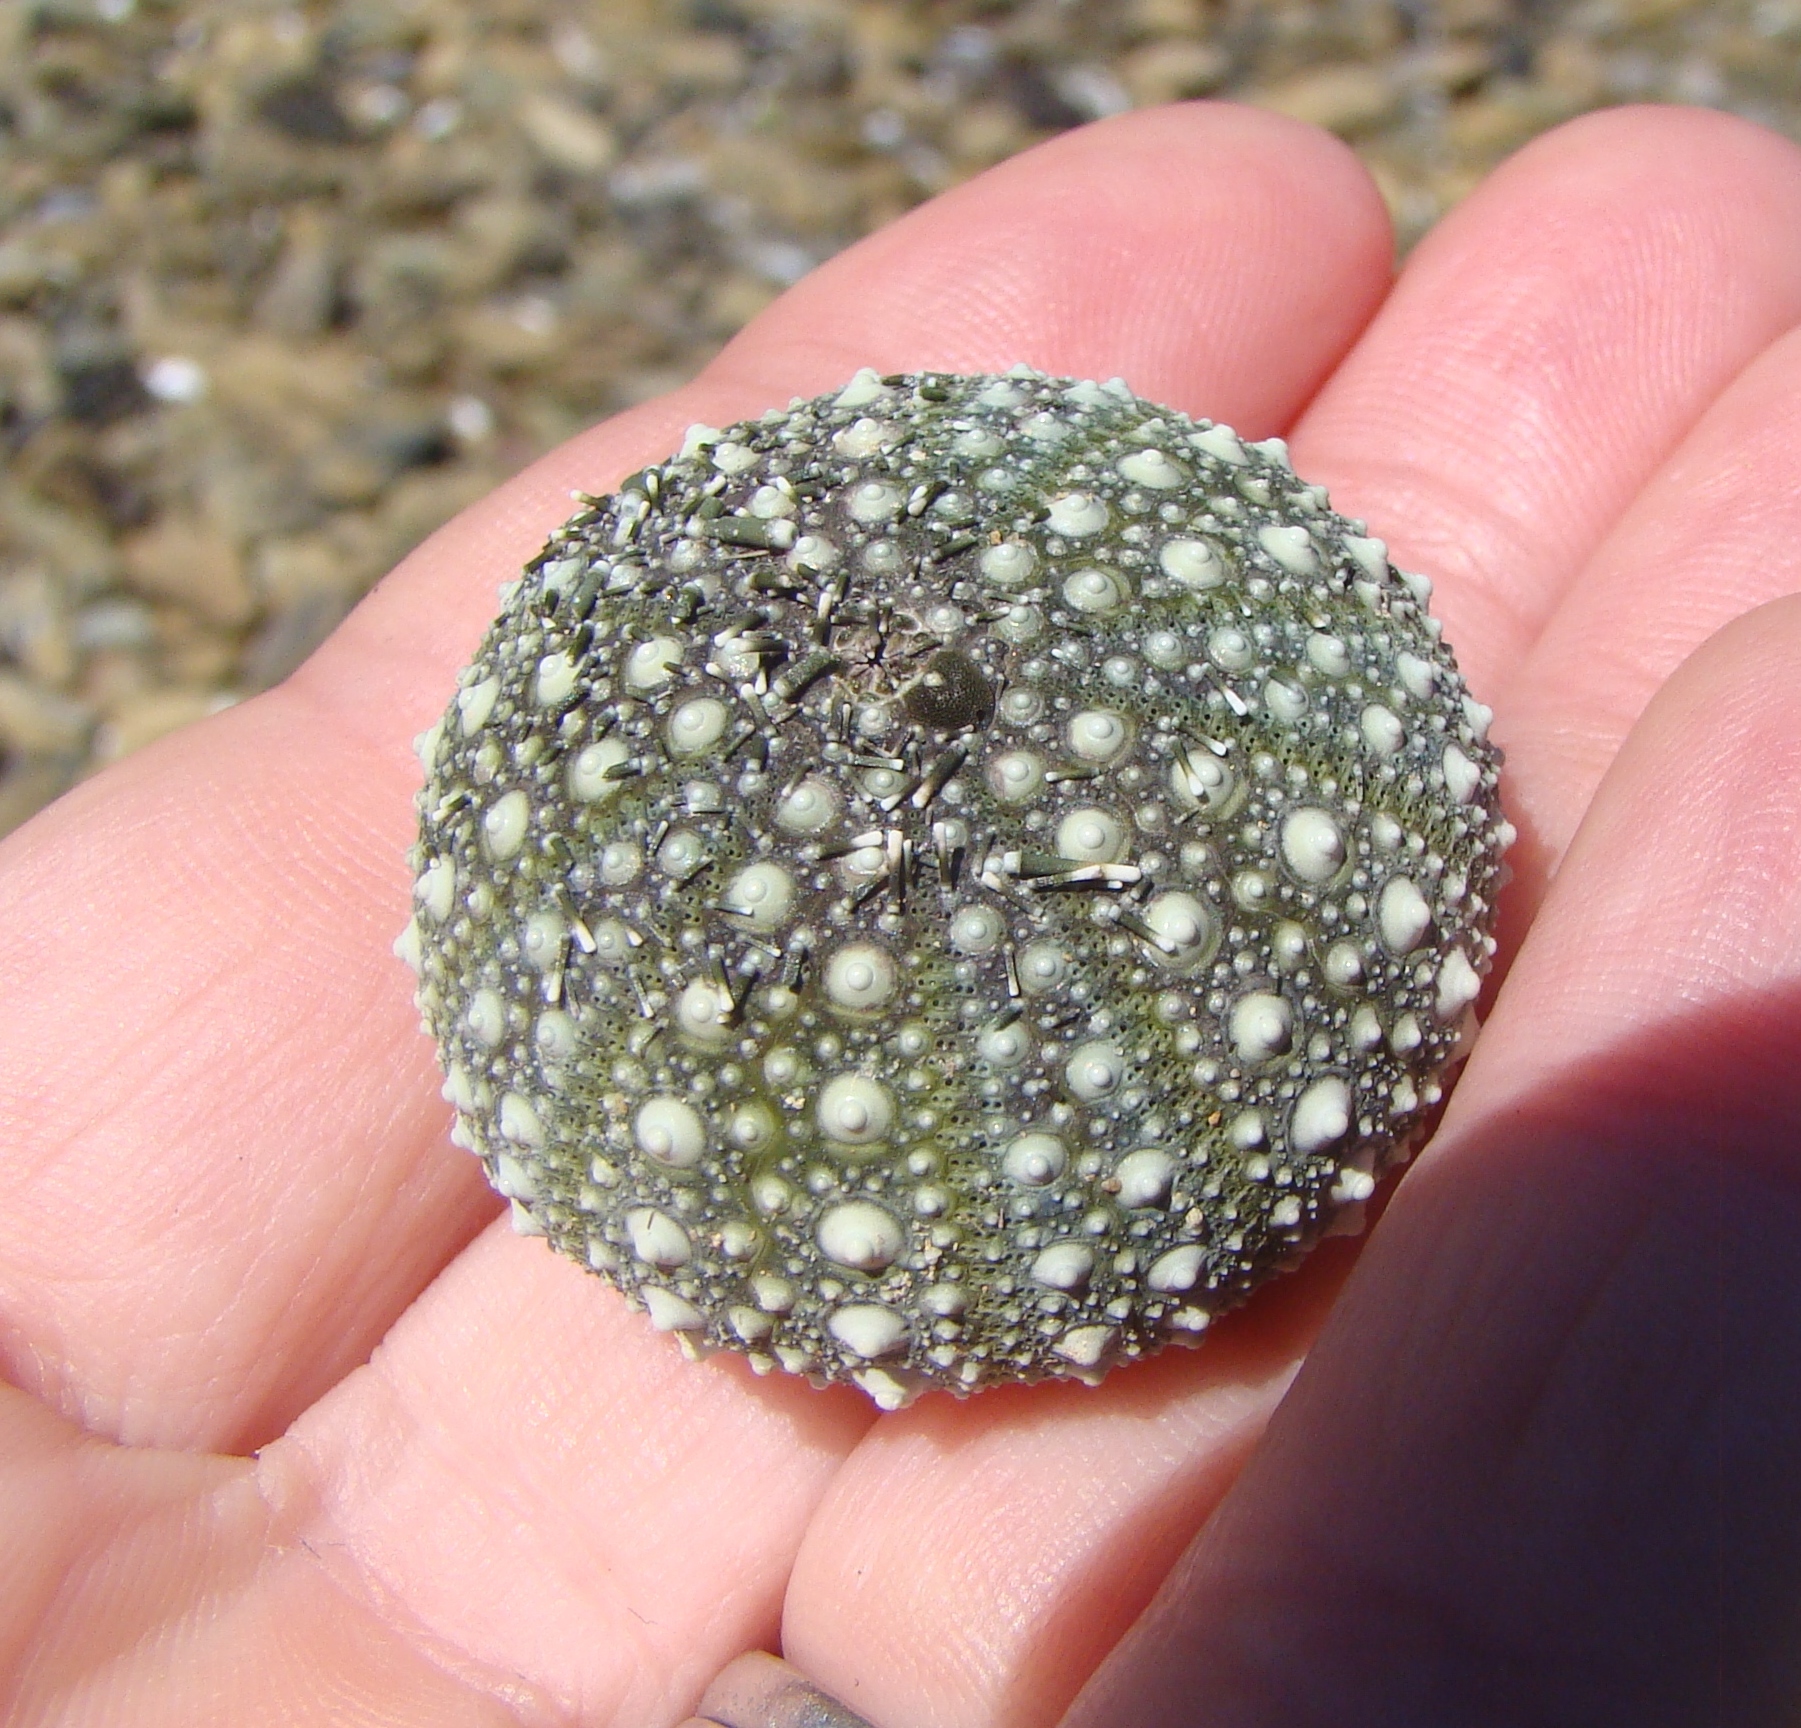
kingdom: Animalia
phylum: Echinodermata
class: Echinoidea
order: Camarodonta
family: Echinometridae
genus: Evechinus
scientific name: Evechinus chloroticus
